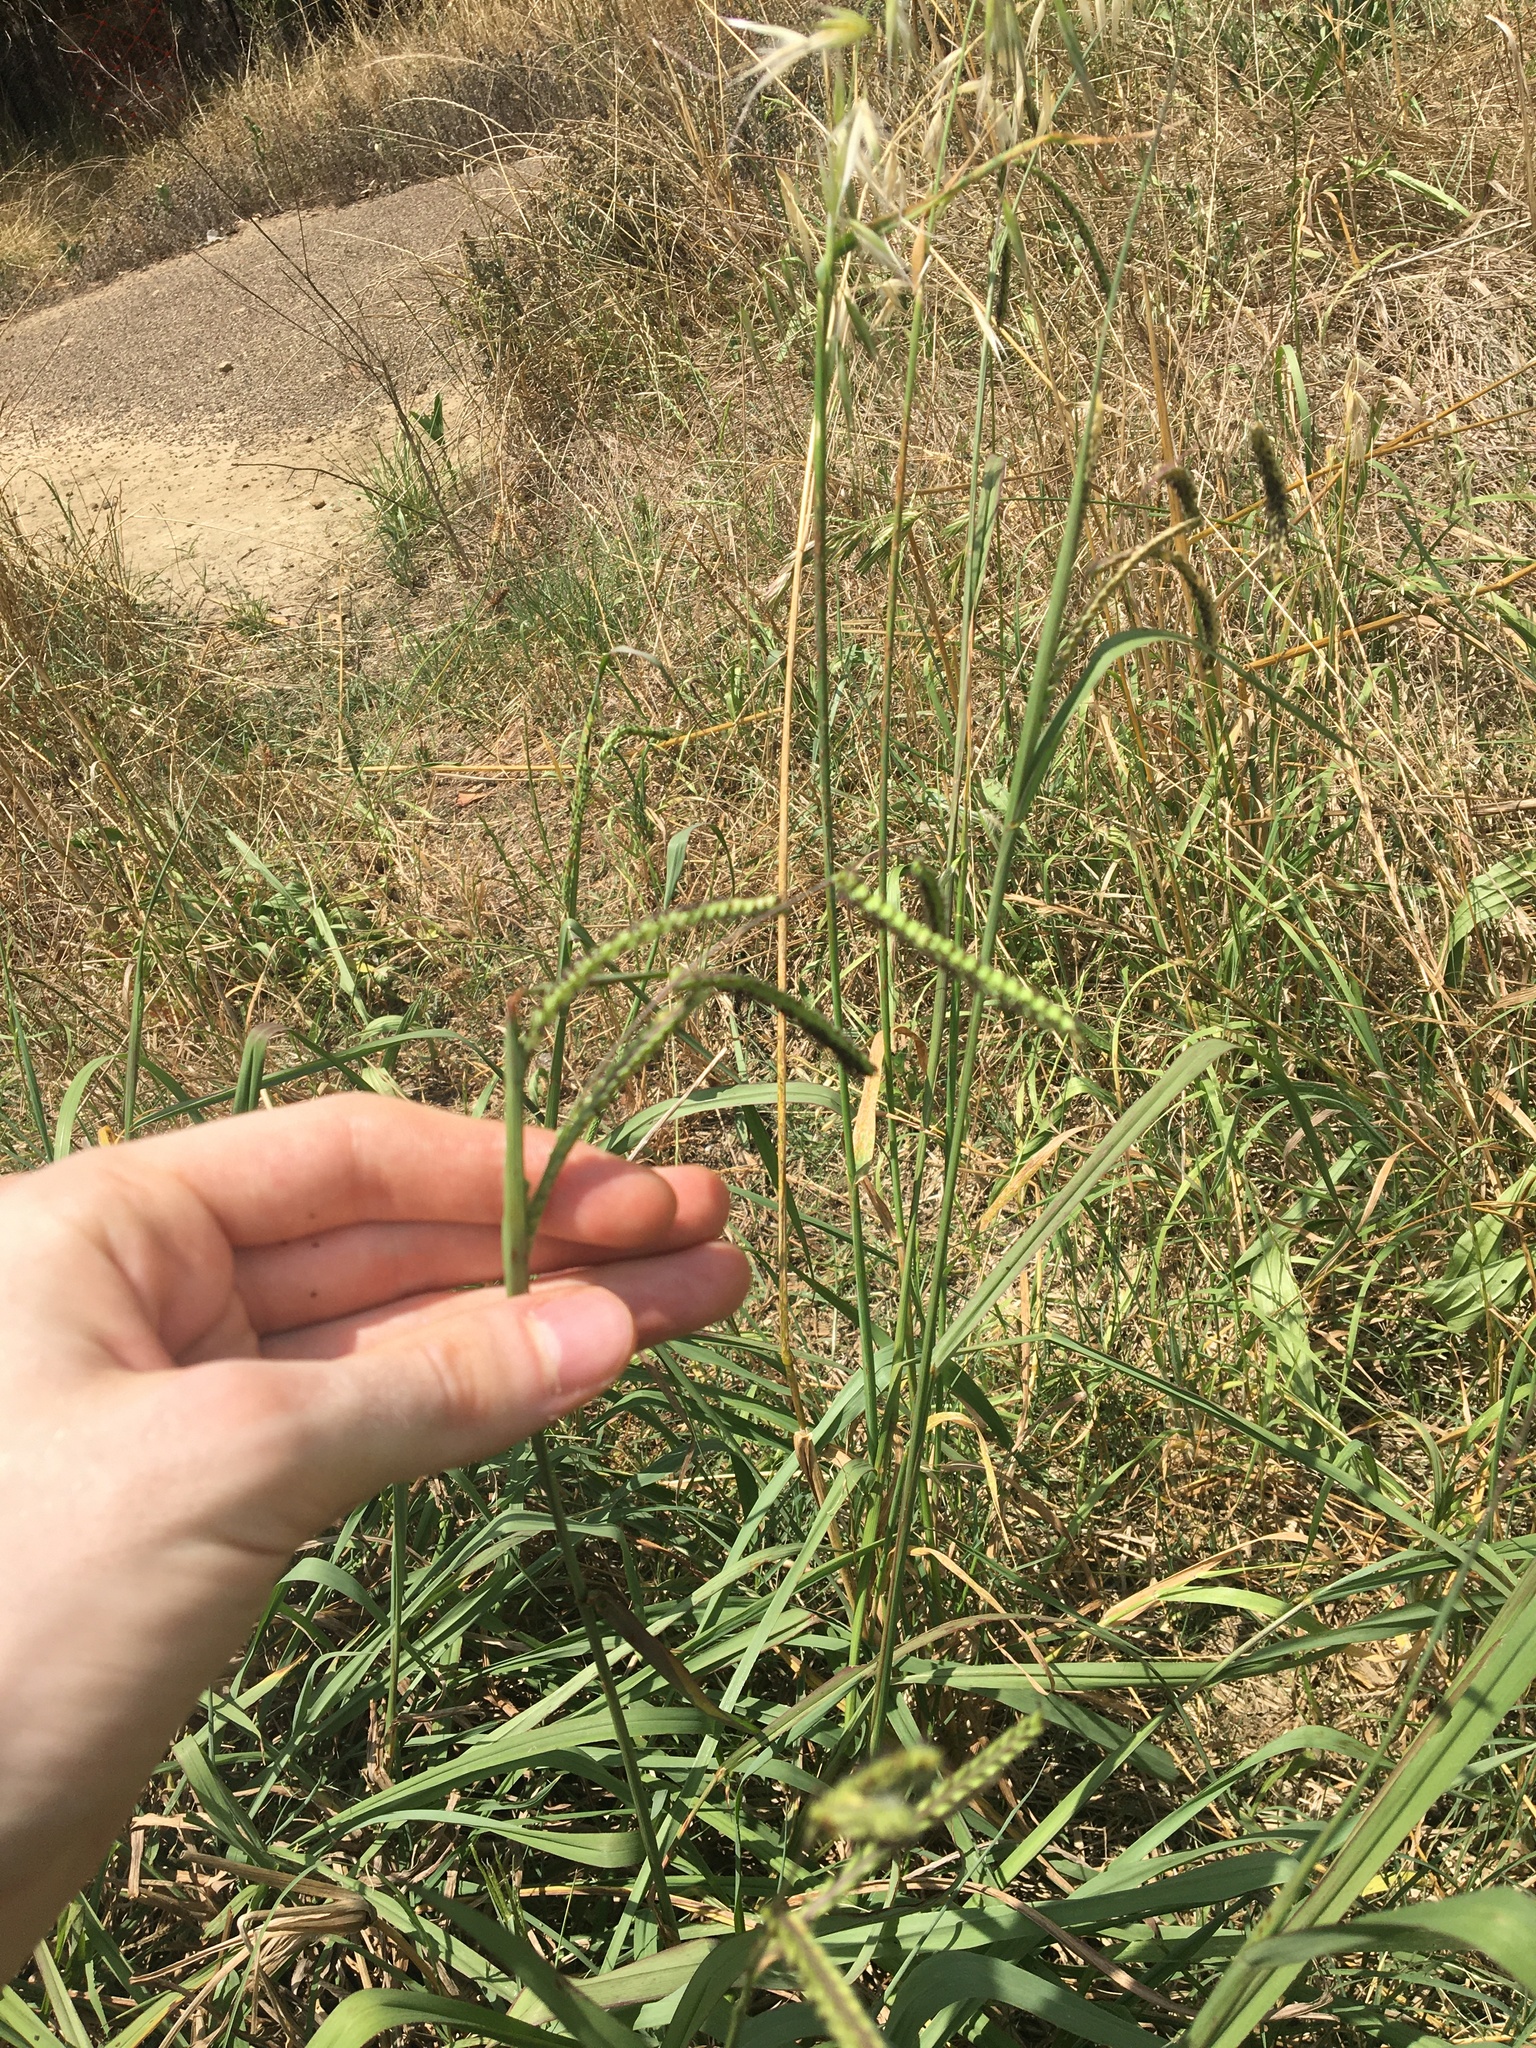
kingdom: Plantae
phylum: Tracheophyta
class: Liliopsida
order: Poales
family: Poaceae
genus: Paspalum
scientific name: Paspalum dilatatum
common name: Dallisgrass
